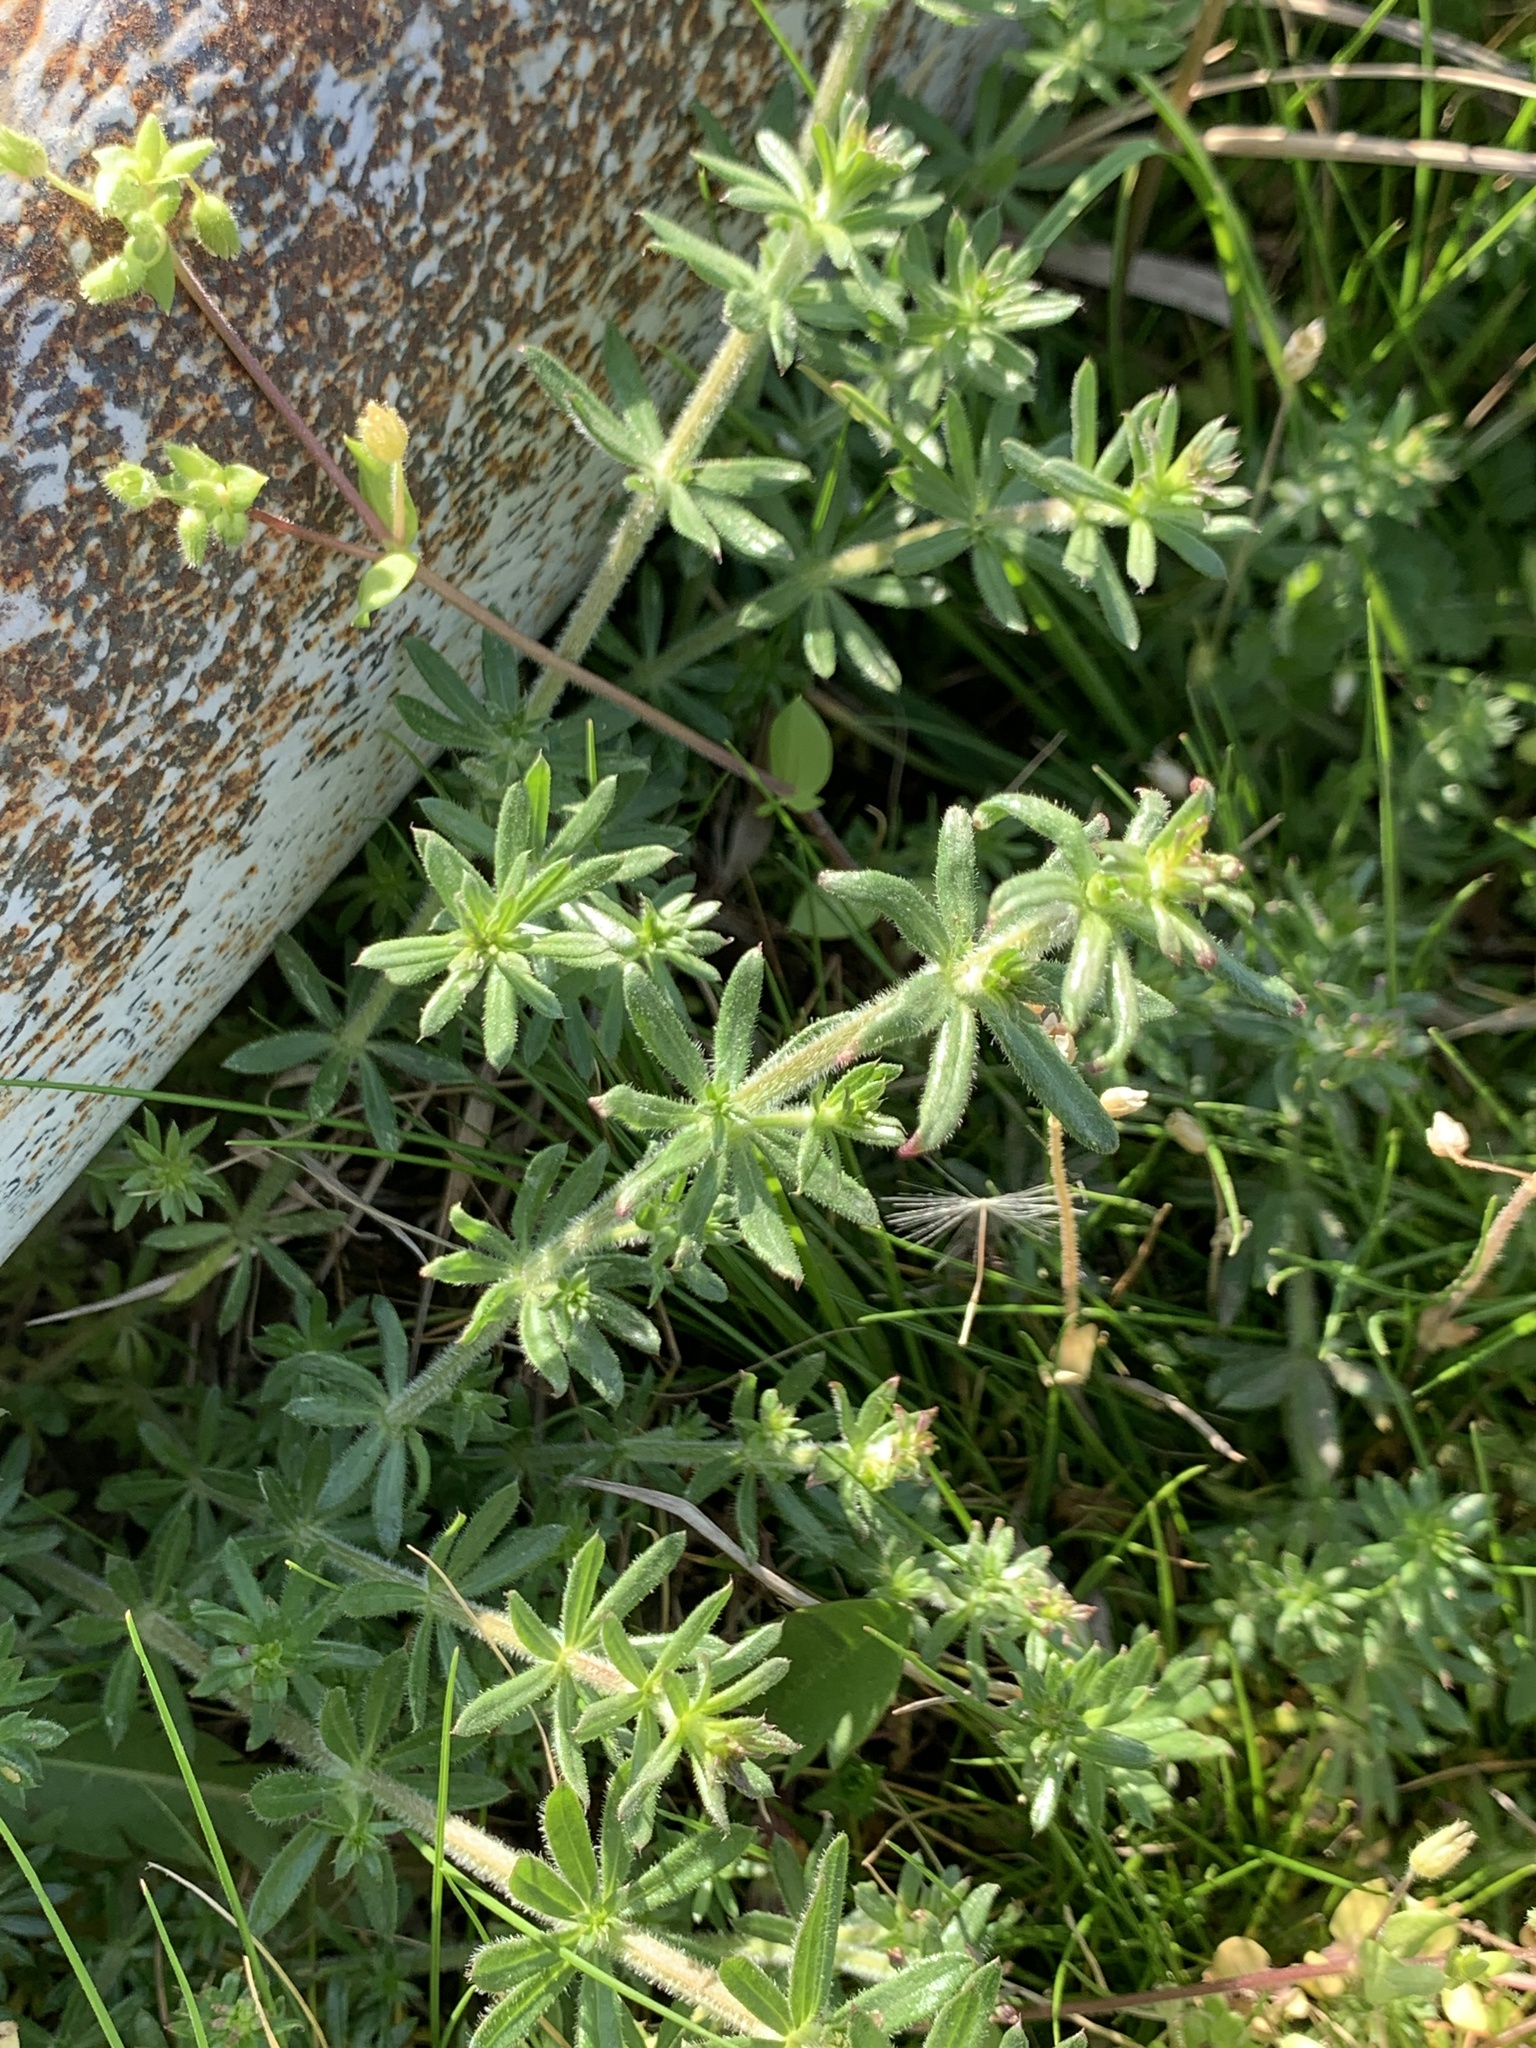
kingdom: Plantae
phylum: Tracheophyta
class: Magnoliopsida
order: Gentianales
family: Rubiaceae
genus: Galium
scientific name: Galium humifusum
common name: Spreading bedstraw
